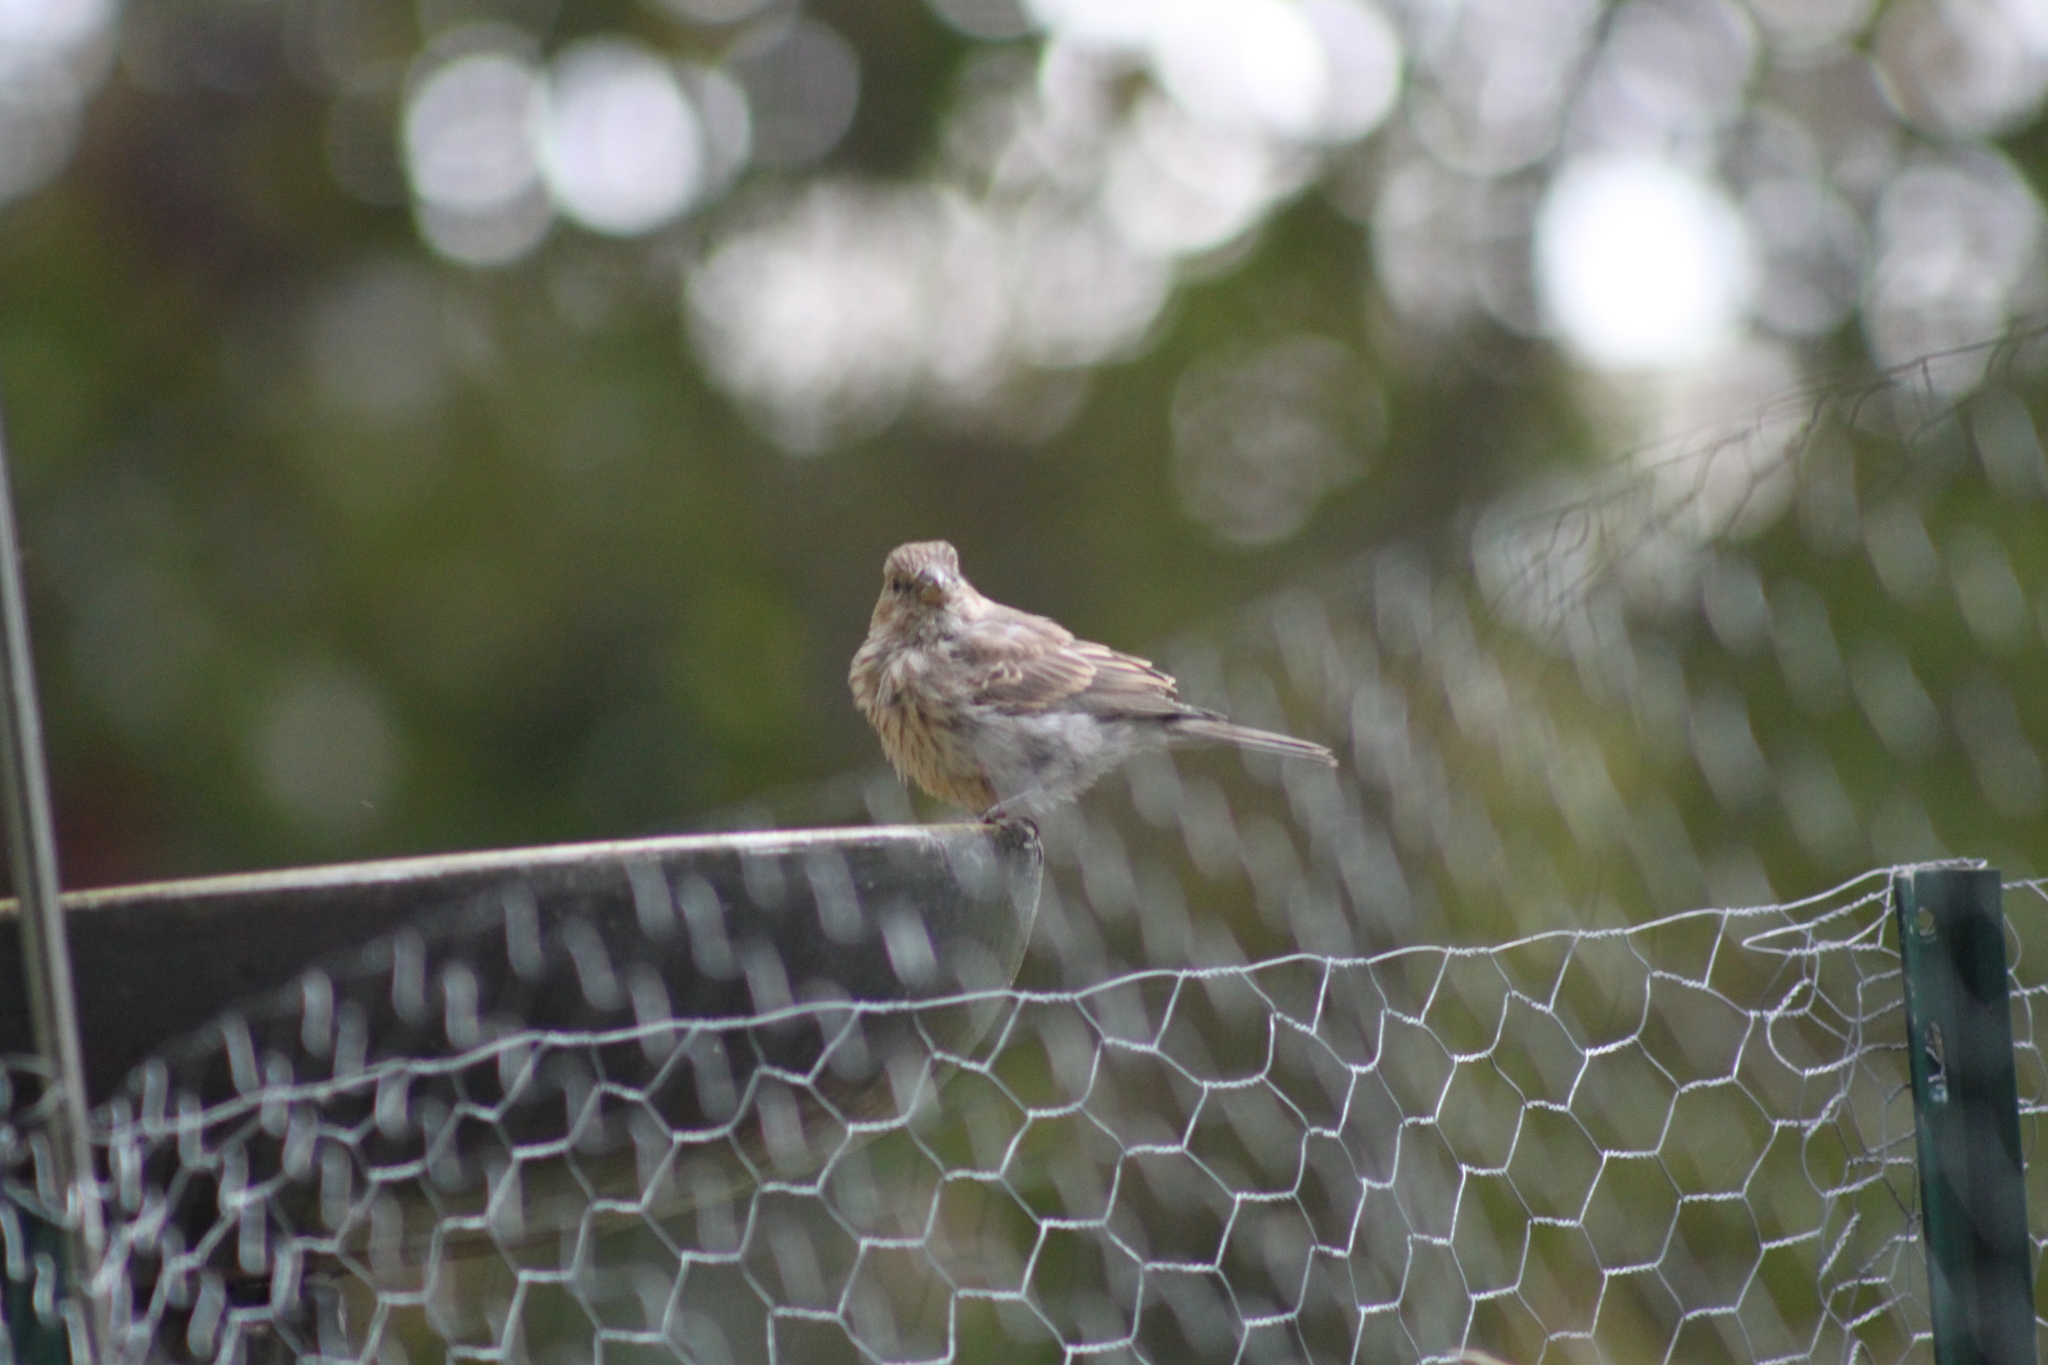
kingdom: Animalia
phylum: Chordata
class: Aves
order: Passeriformes
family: Fringillidae
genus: Haemorhous
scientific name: Haemorhous mexicanus
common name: House finch
